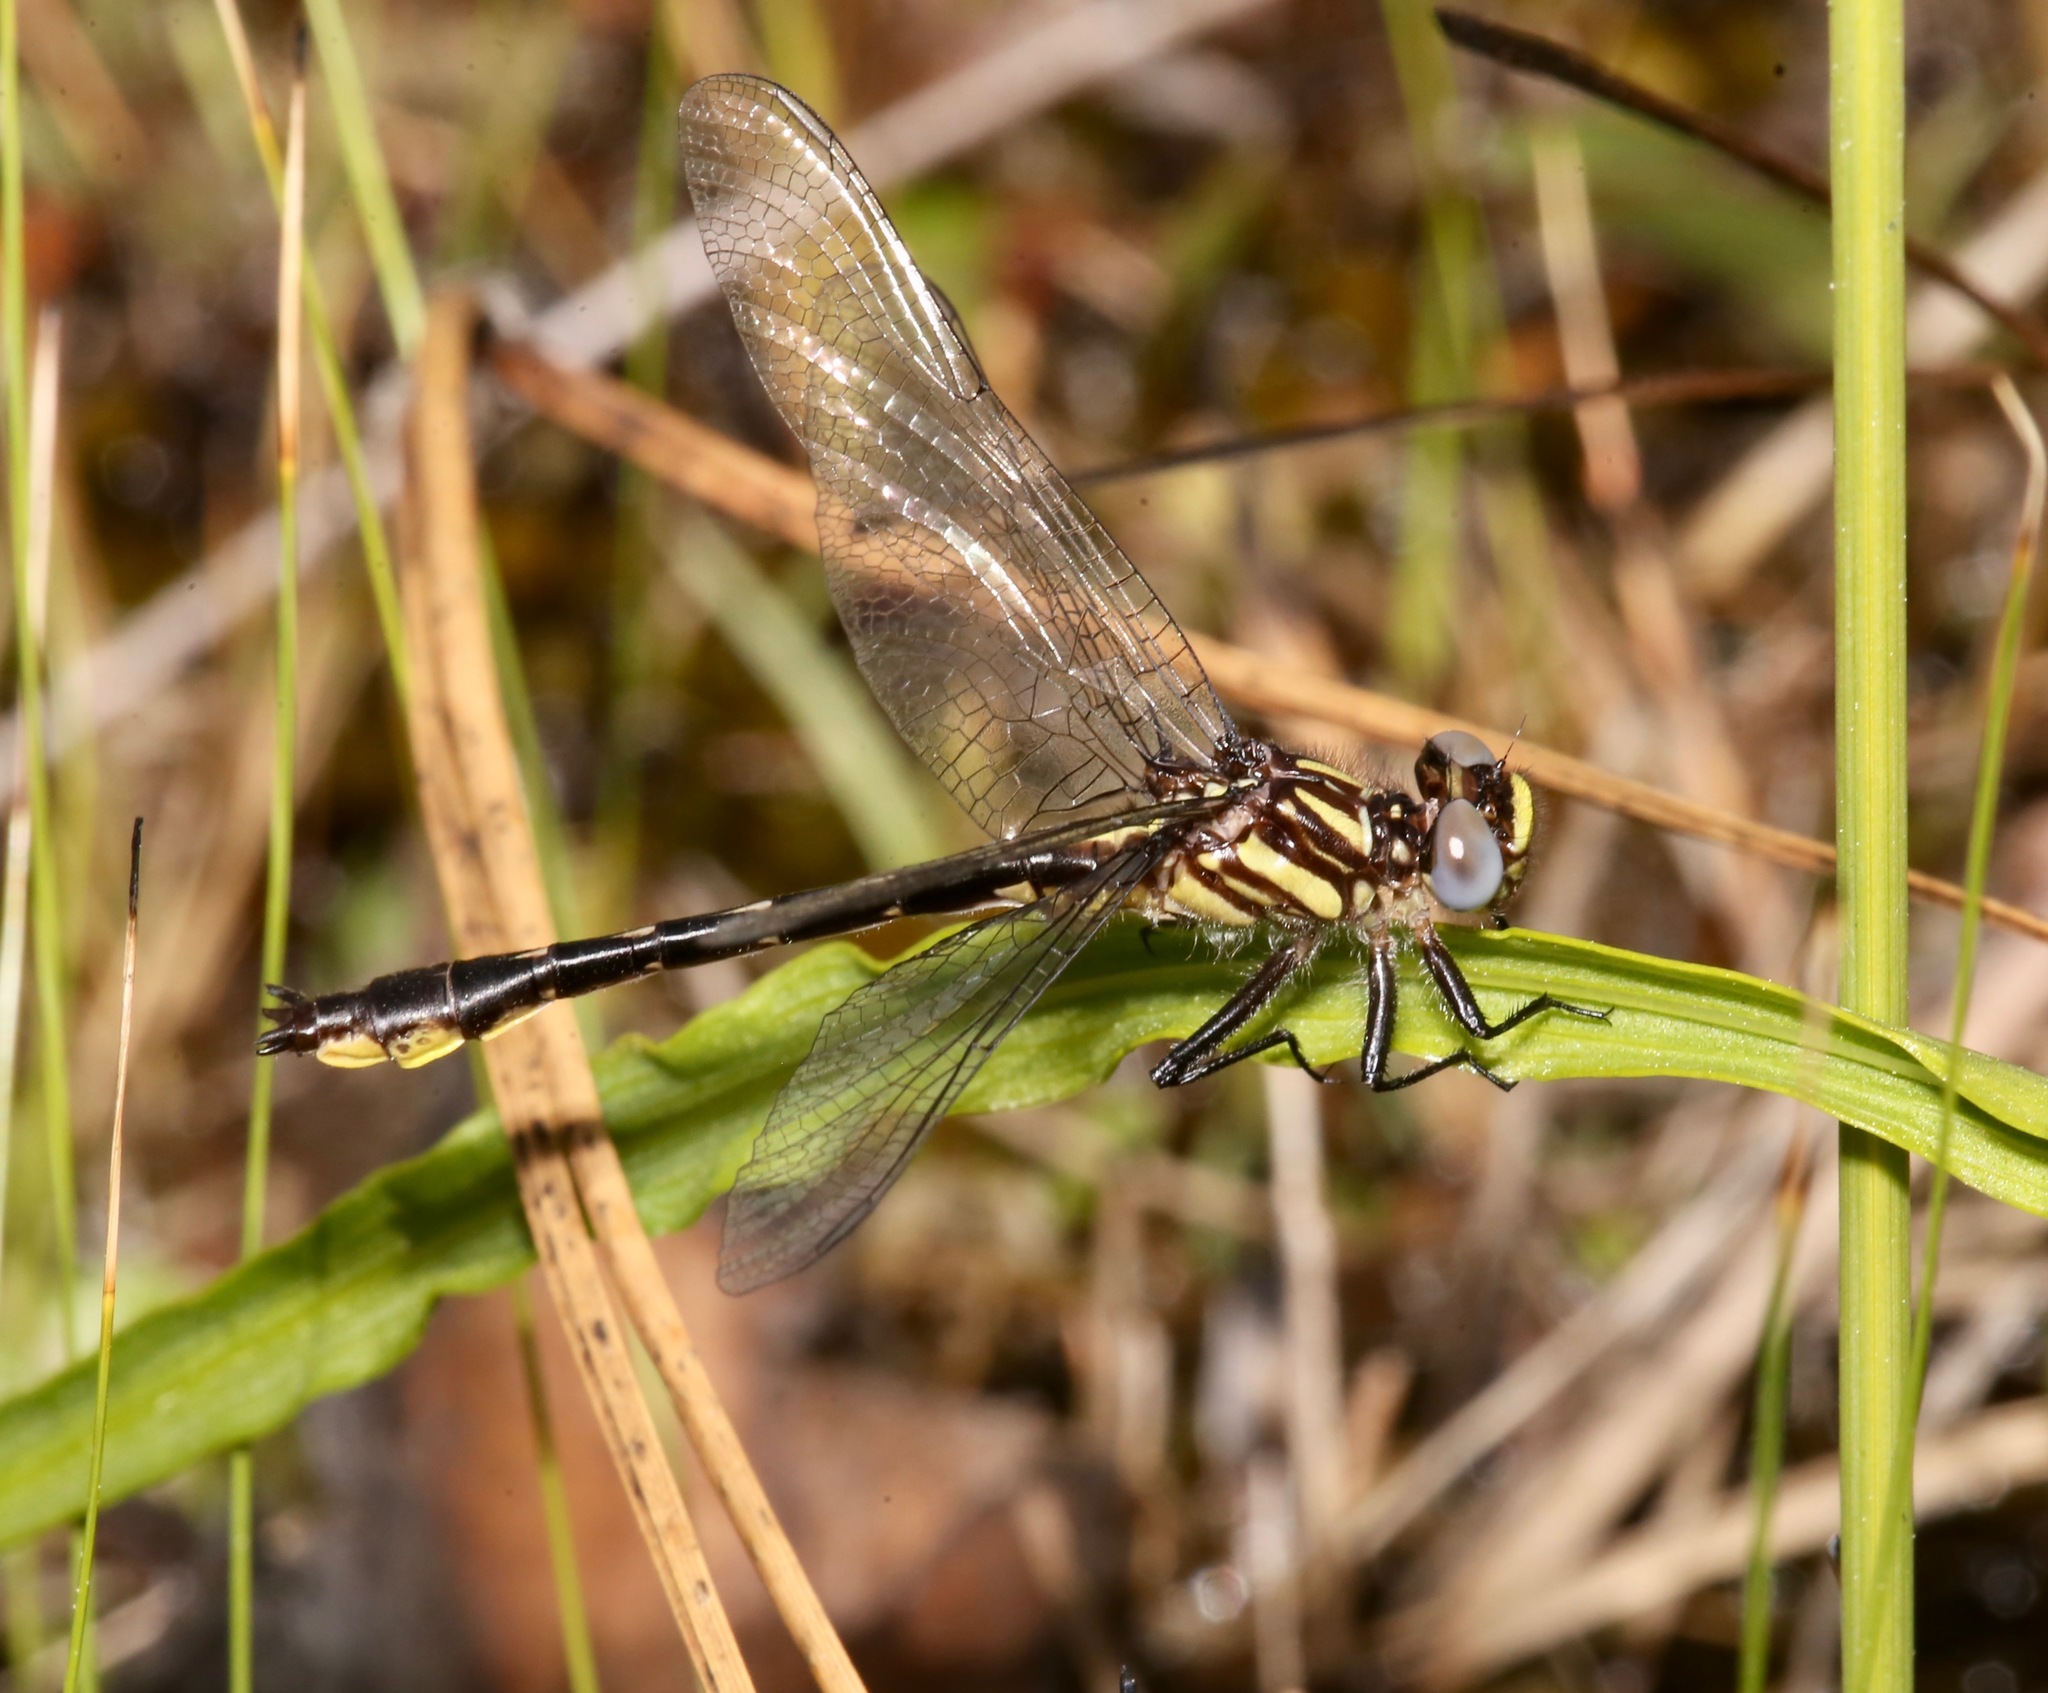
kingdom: Animalia
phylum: Arthropoda
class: Insecta
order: Odonata
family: Gomphidae
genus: Hylogomphus
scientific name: Hylogomphus geminatus
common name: Twin-striped clubtail
